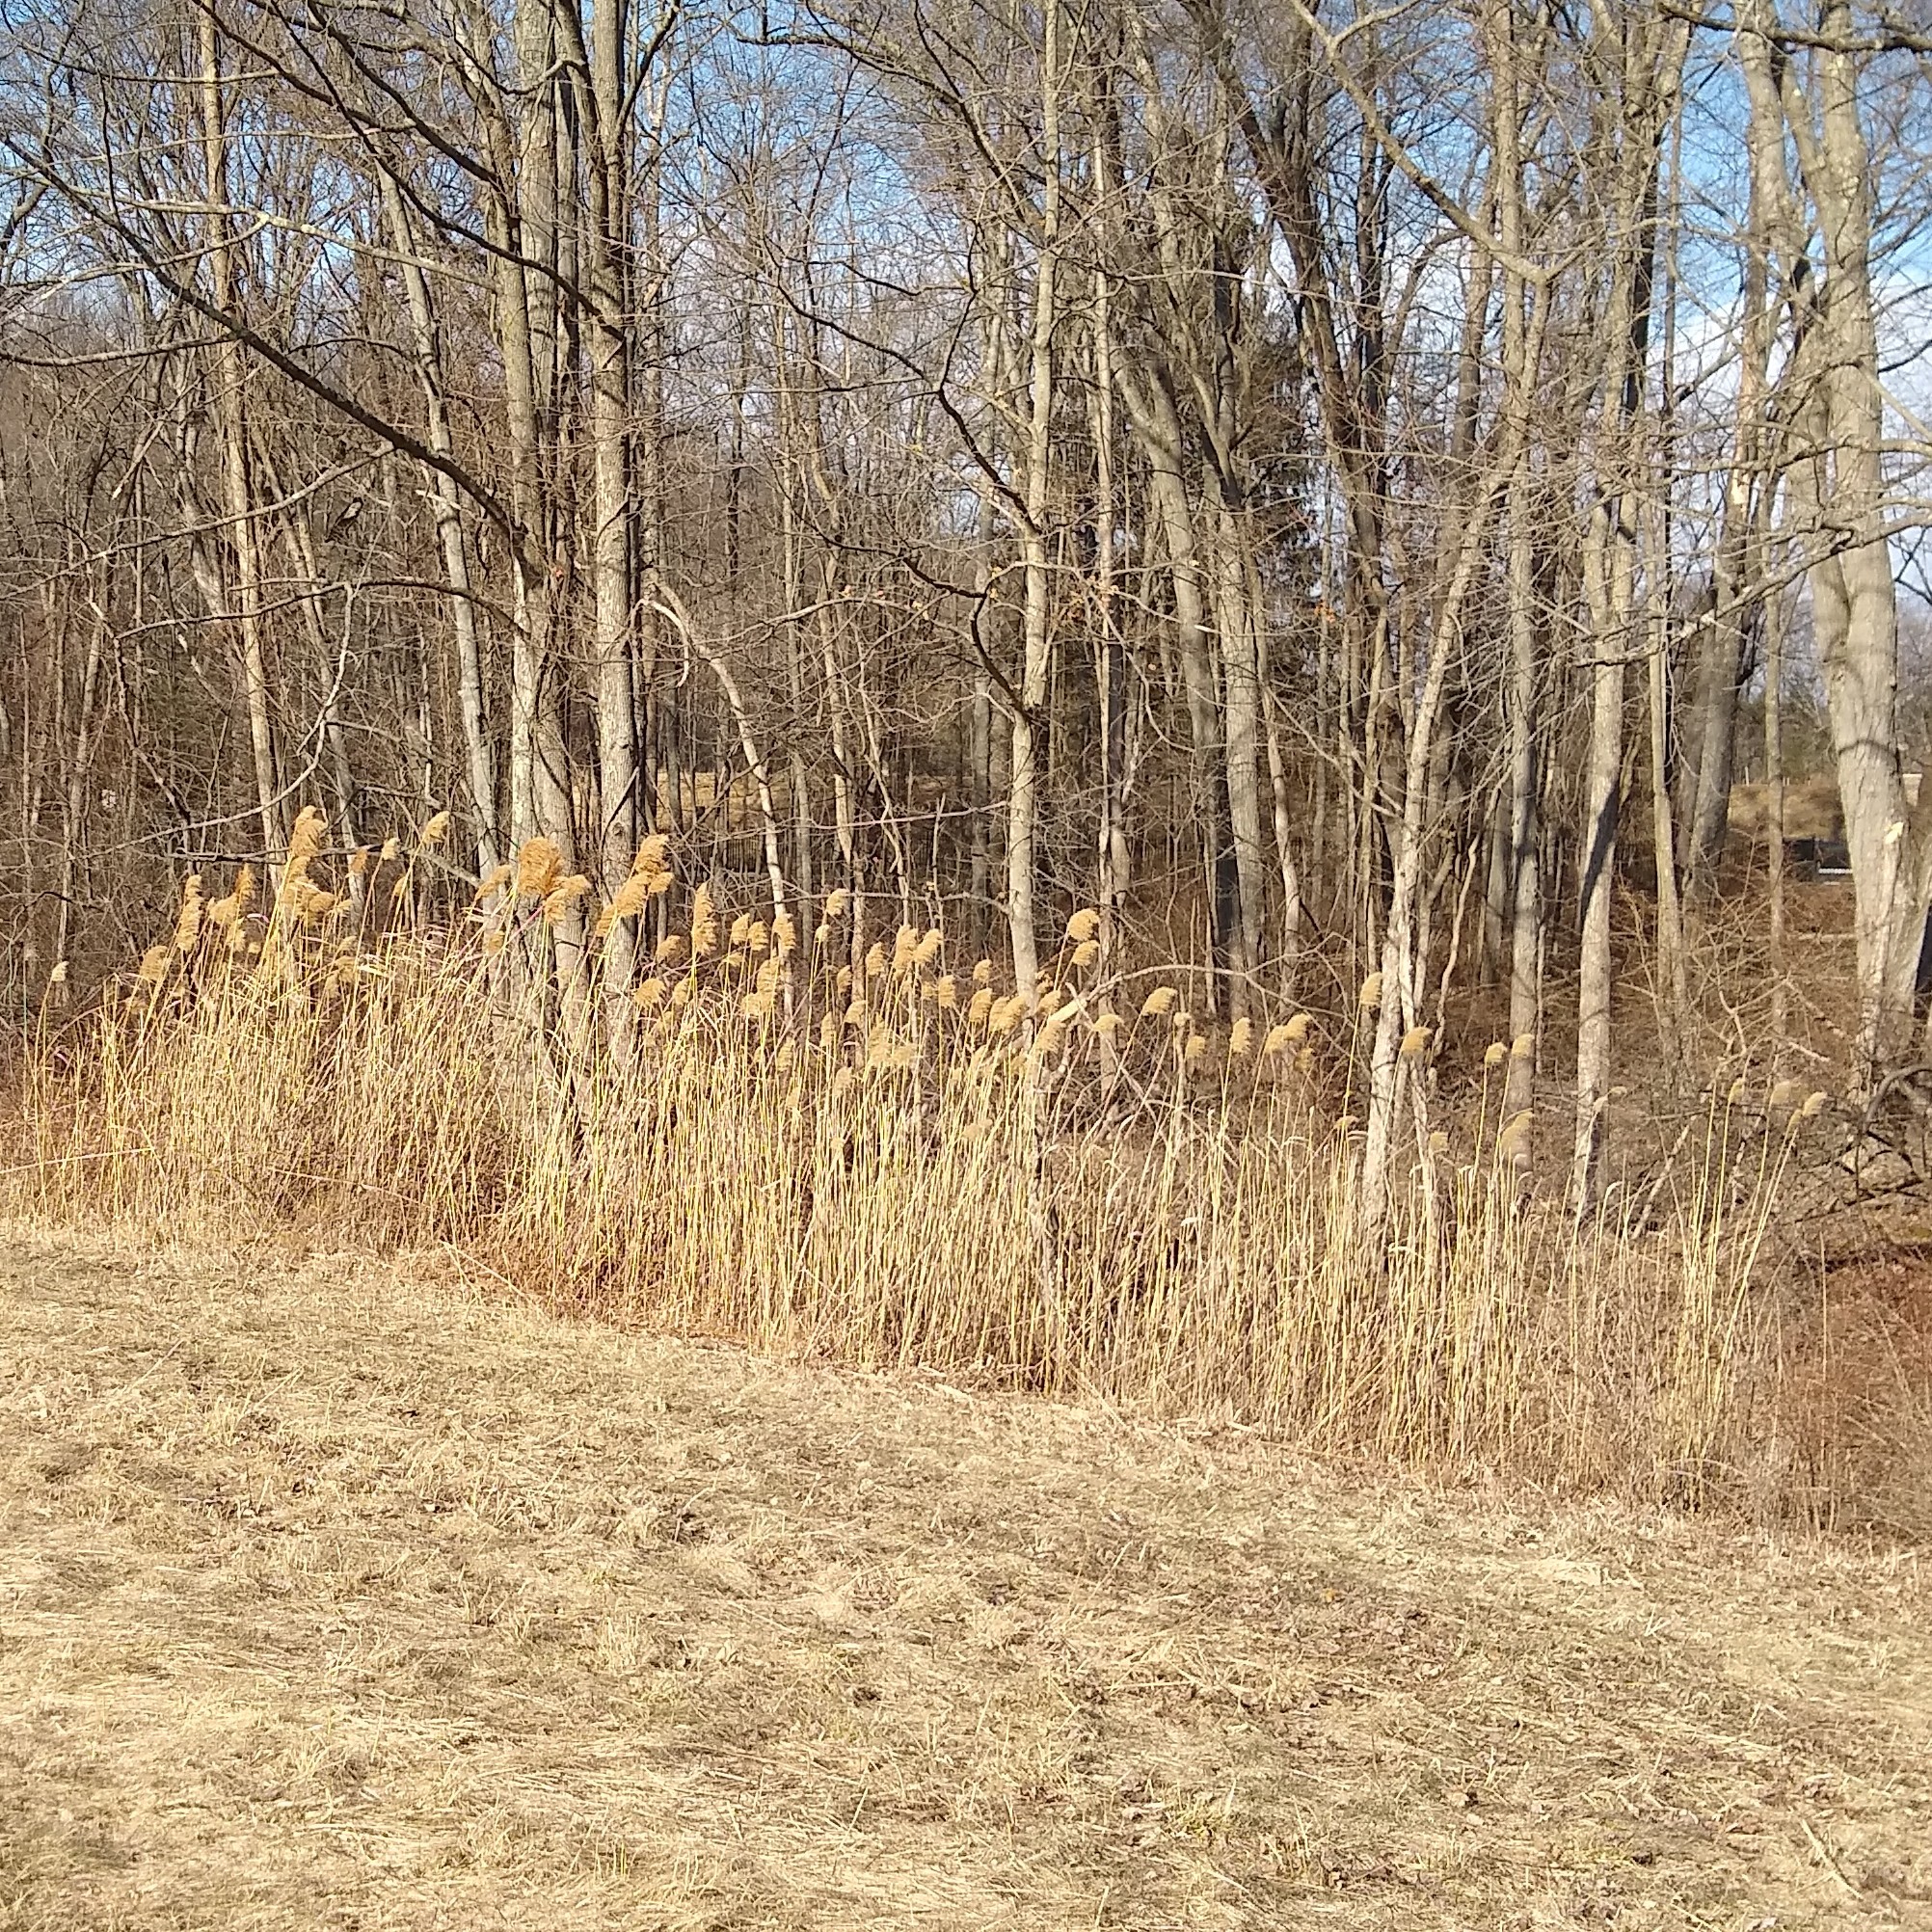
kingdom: Plantae
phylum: Tracheophyta
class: Liliopsida
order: Poales
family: Poaceae
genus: Phragmites
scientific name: Phragmites australis
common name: Common reed
